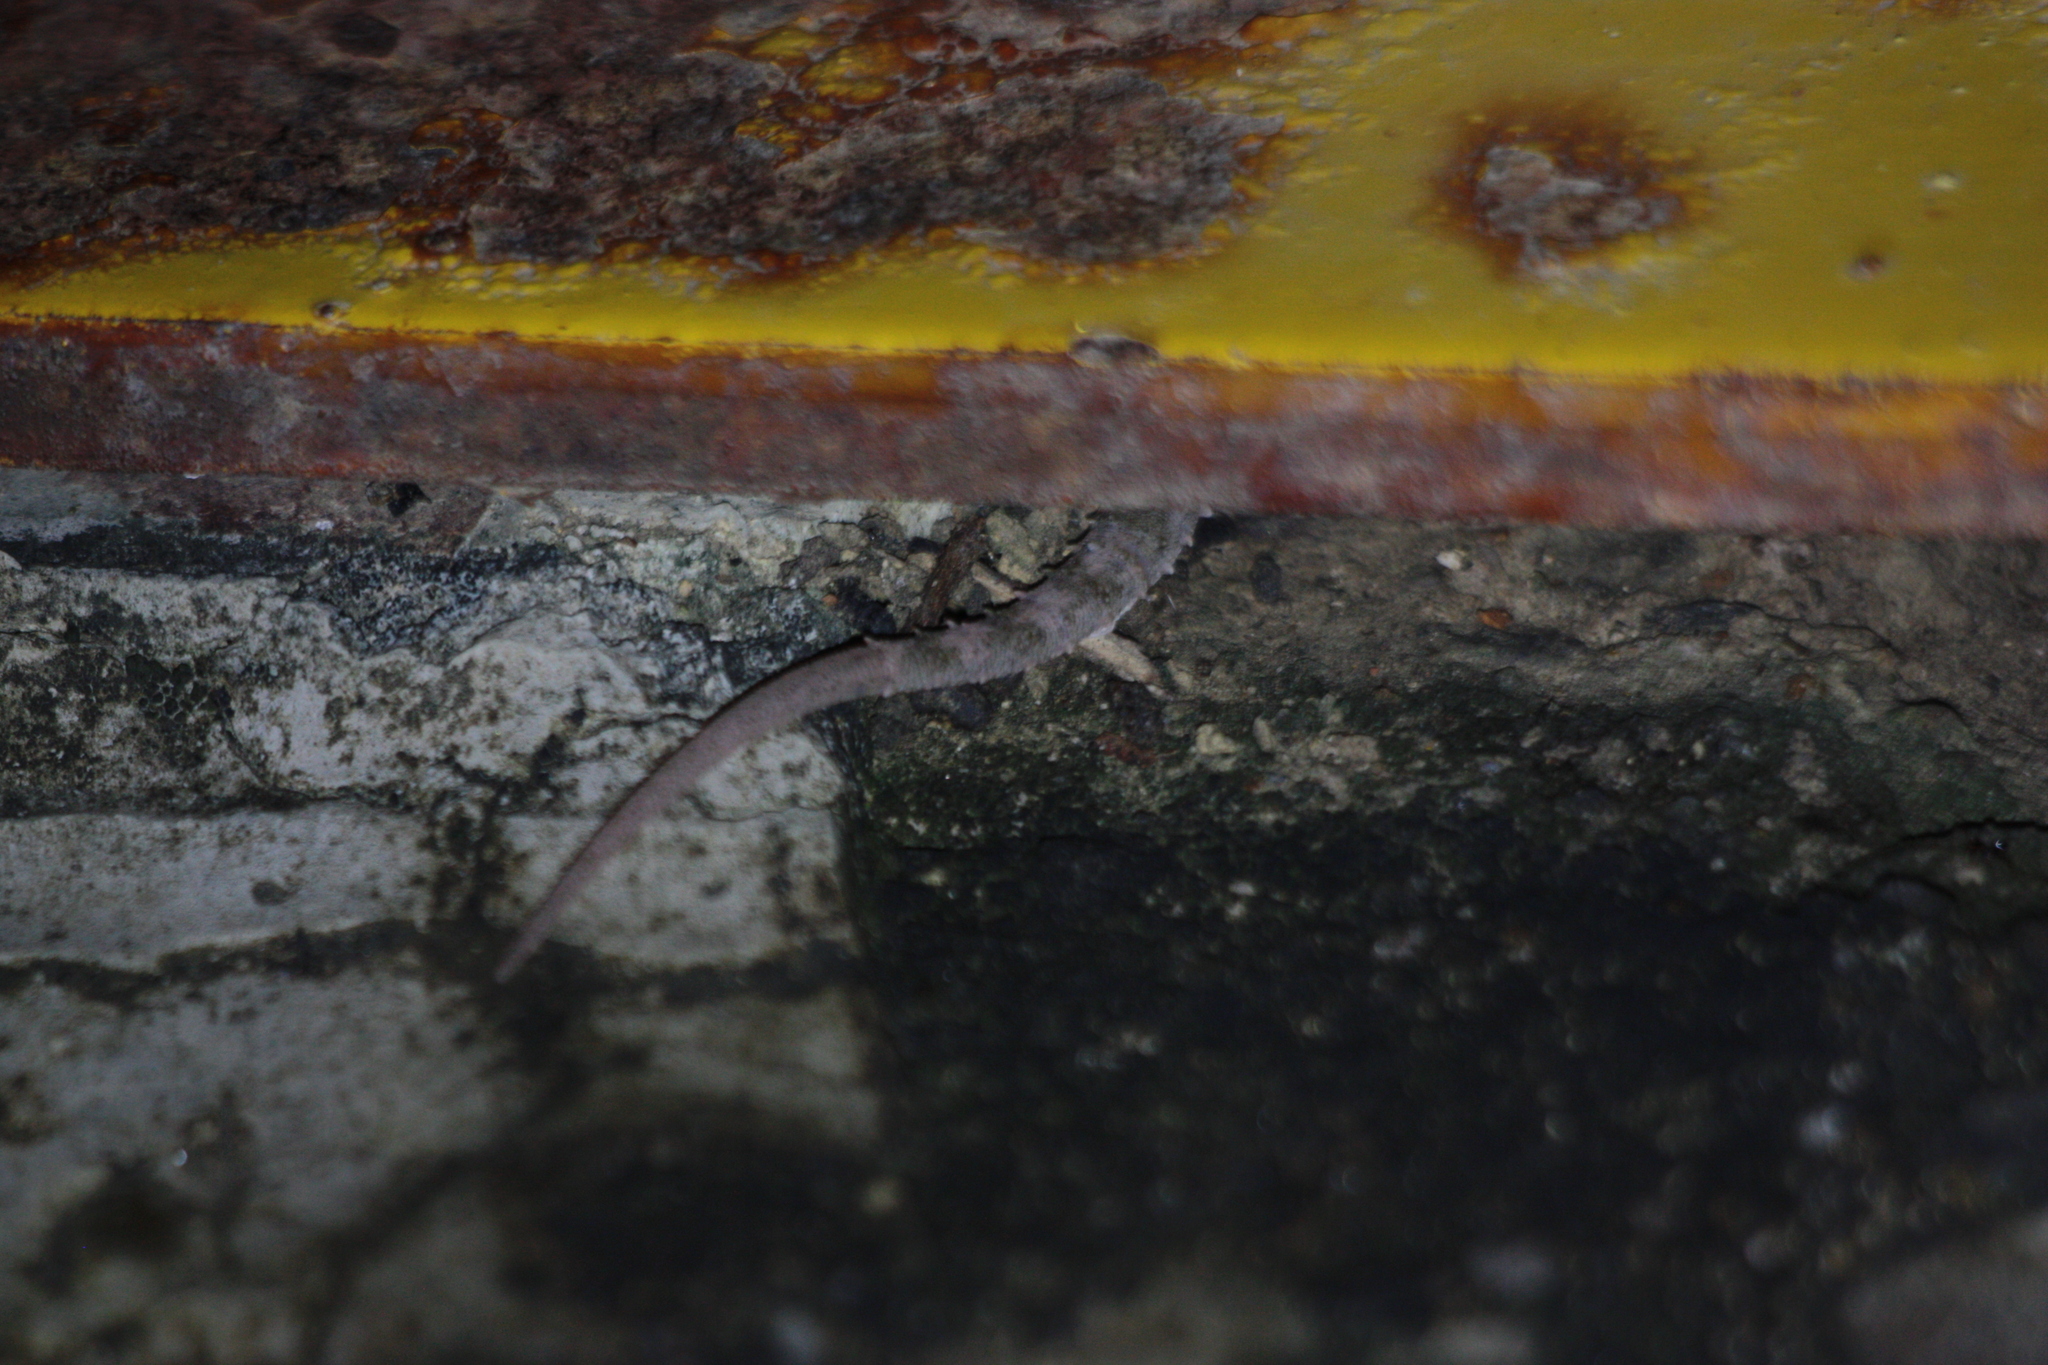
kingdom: Animalia
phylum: Chordata
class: Squamata
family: Gekkonidae
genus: Hemidactylus
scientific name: Hemidactylus frenatus
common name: Common house gecko
